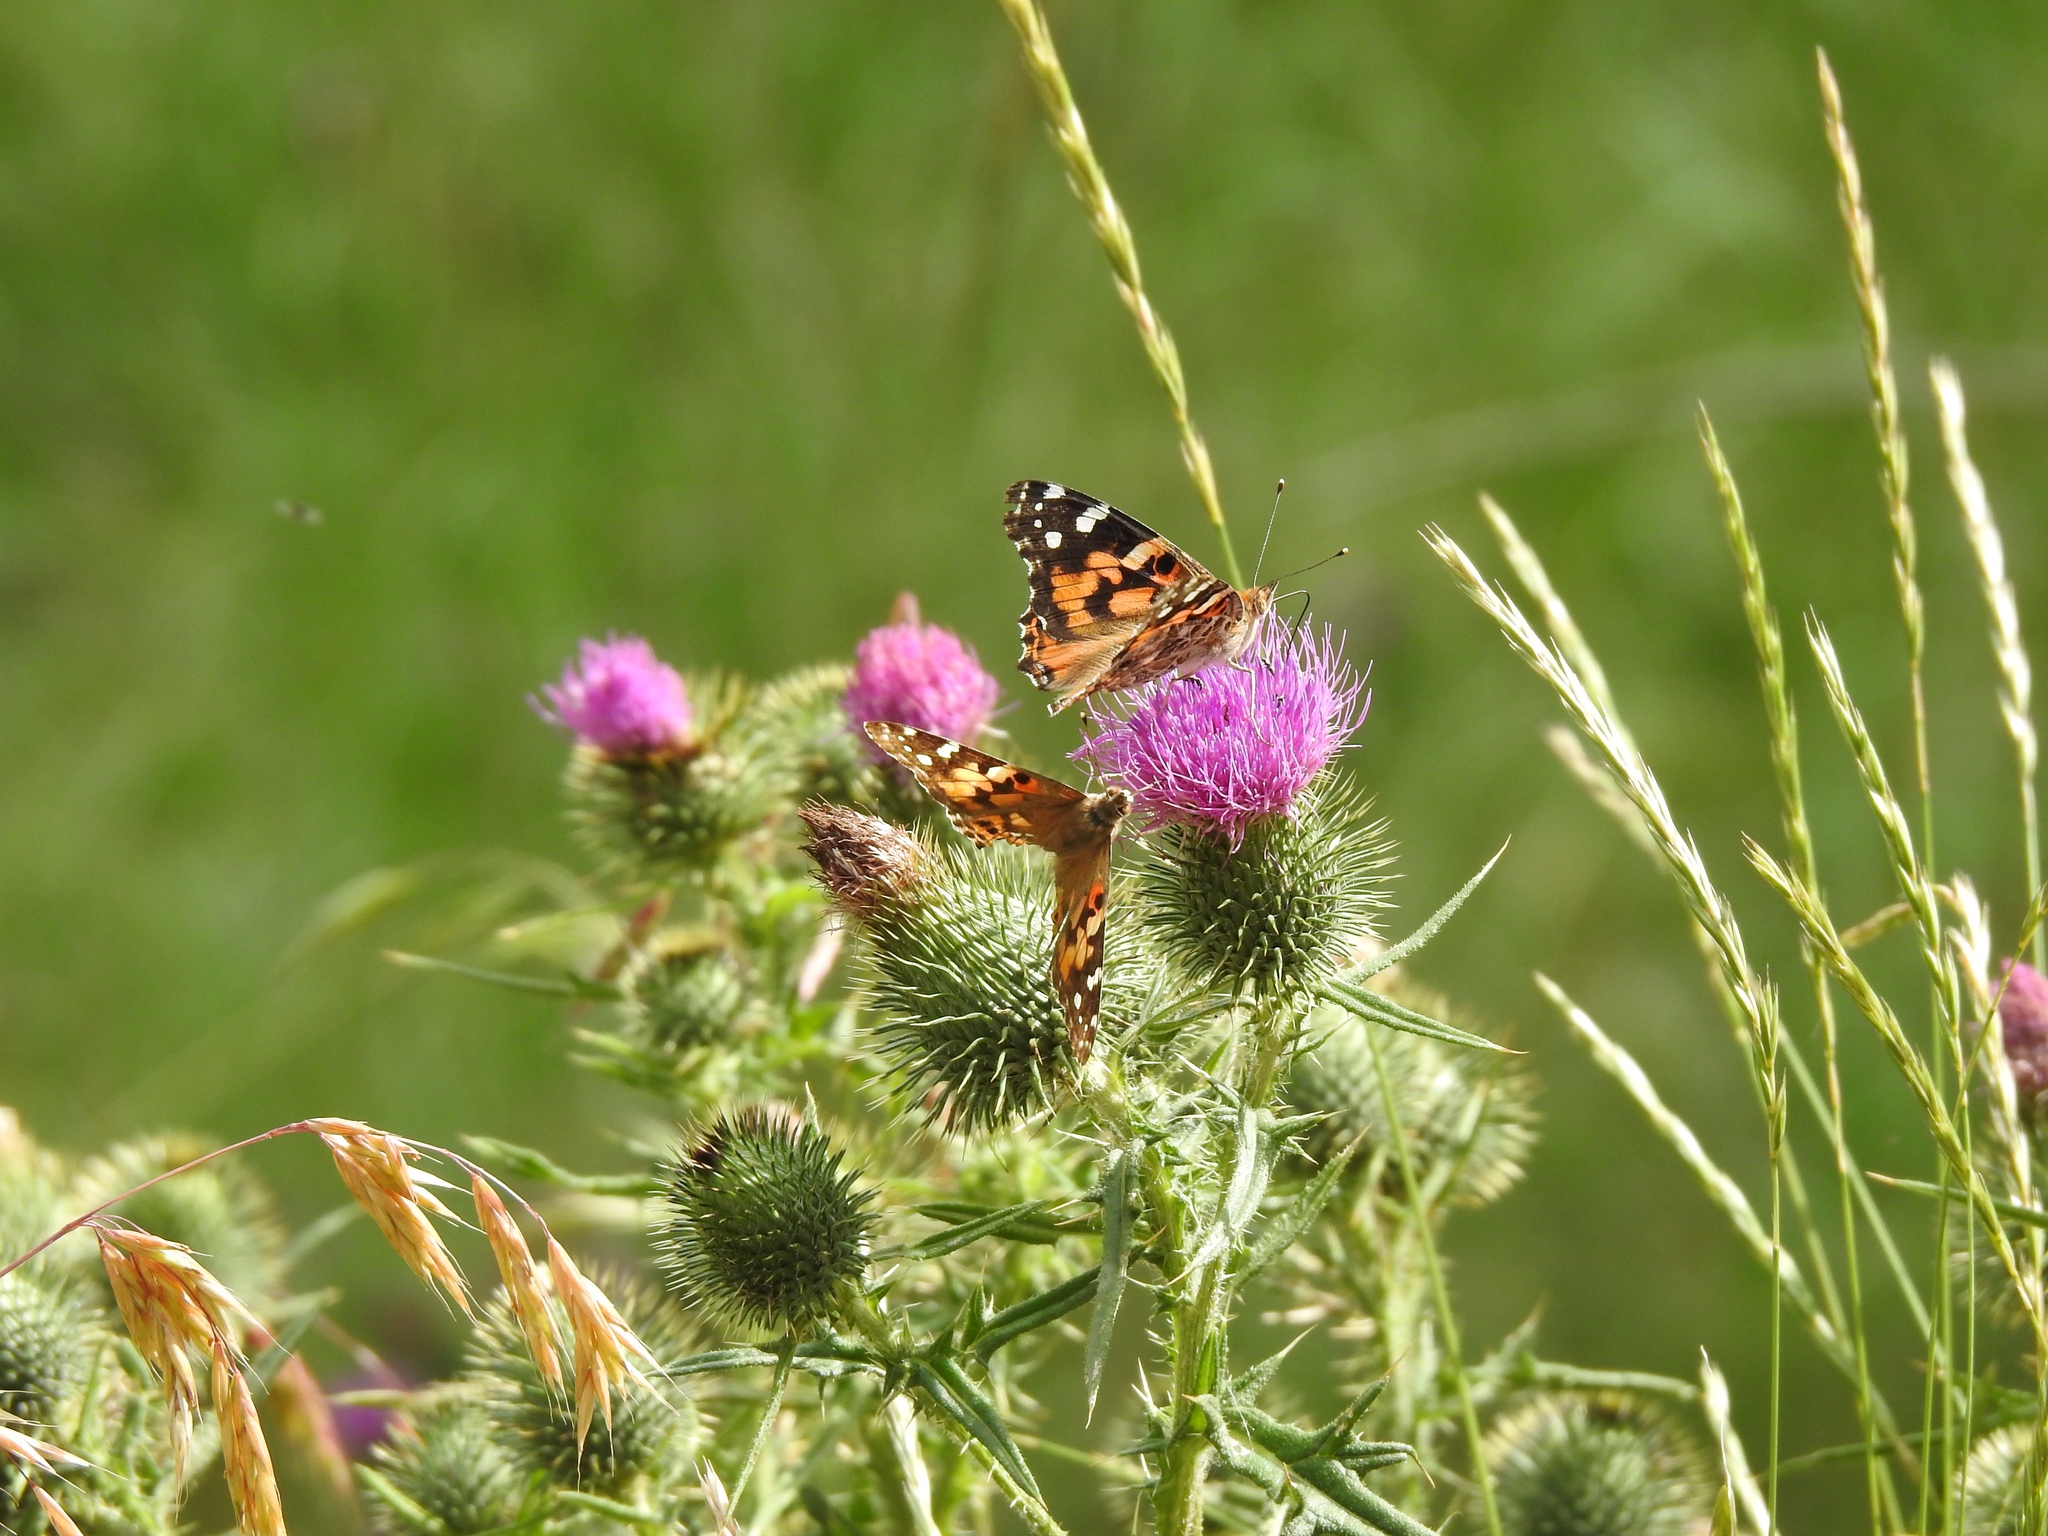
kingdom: Animalia
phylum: Arthropoda
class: Insecta
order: Lepidoptera
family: Nymphalidae
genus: Vanessa
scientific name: Vanessa cardui
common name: Painted lady
